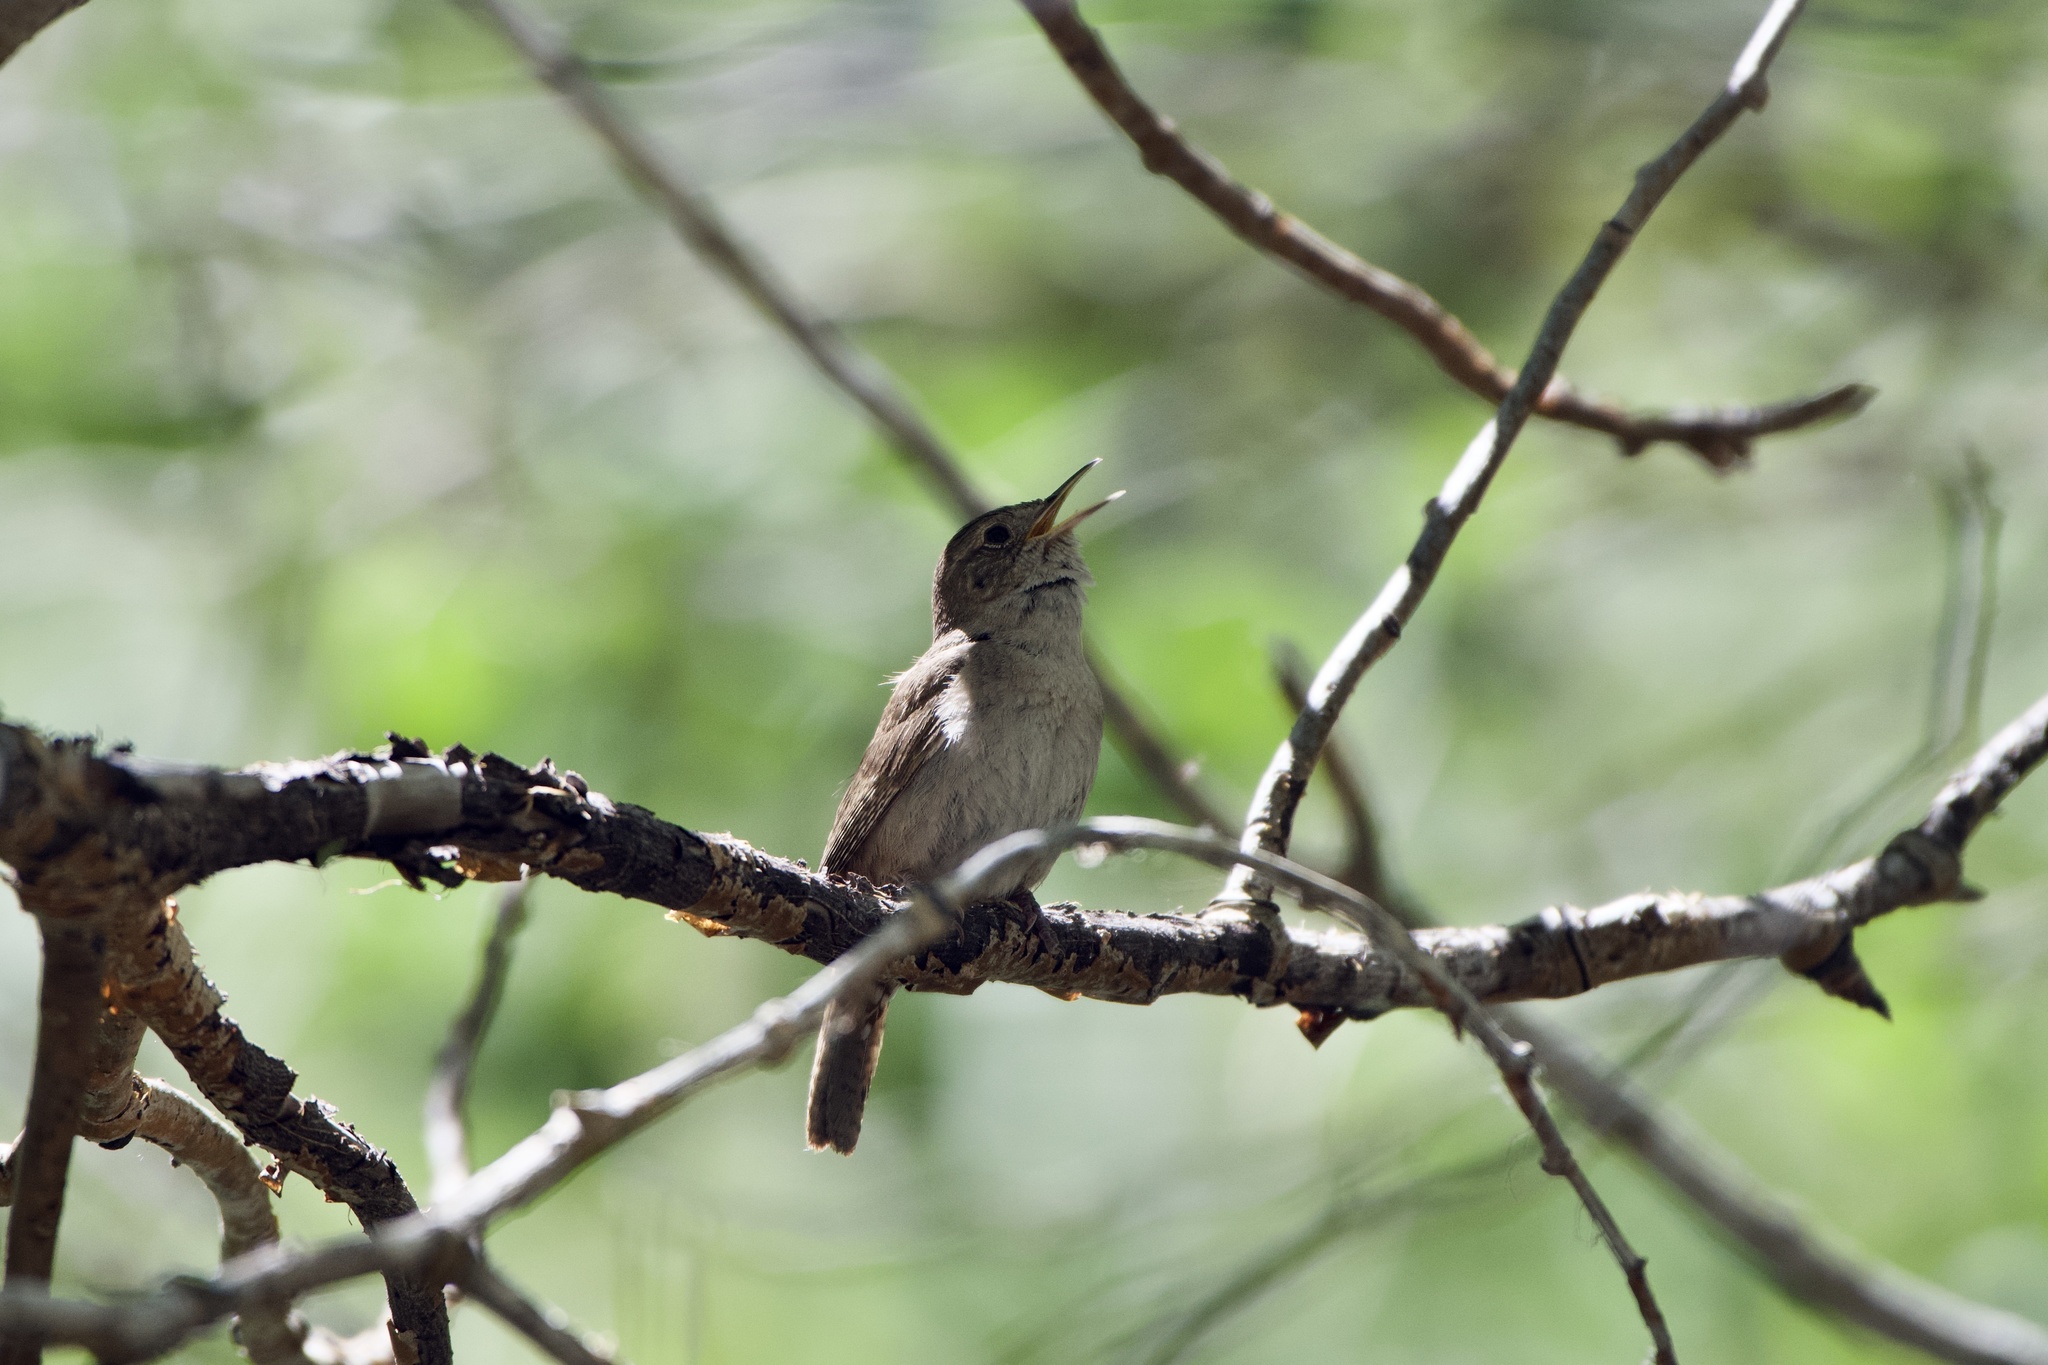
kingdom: Animalia
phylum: Chordata
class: Aves
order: Passeriformes
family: Troglodytidae
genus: Troglodytes
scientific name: Troglodytes aedon
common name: House wren
